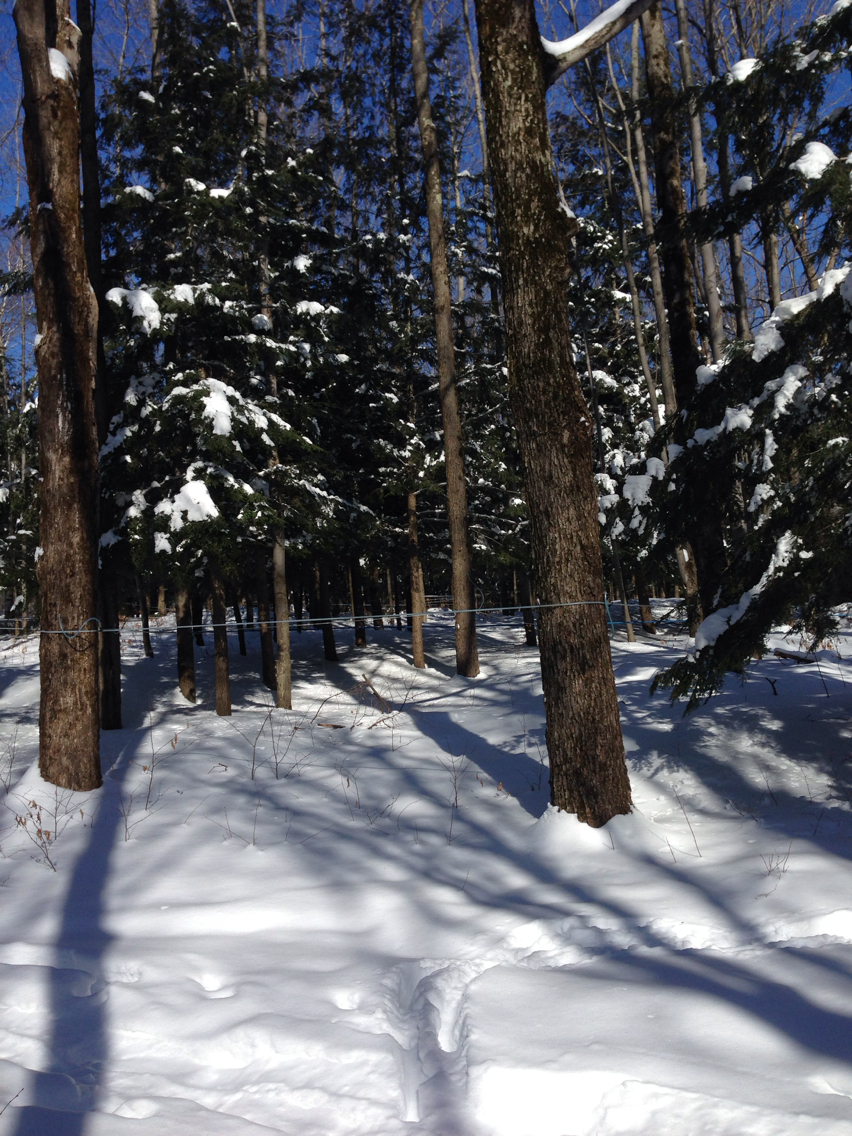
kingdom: Plantae
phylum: Tracheophyta
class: Magnoliopsida
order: Sapindales
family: Sapindaceae
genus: Acer
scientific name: Acer saccharum
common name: Sugar maple
